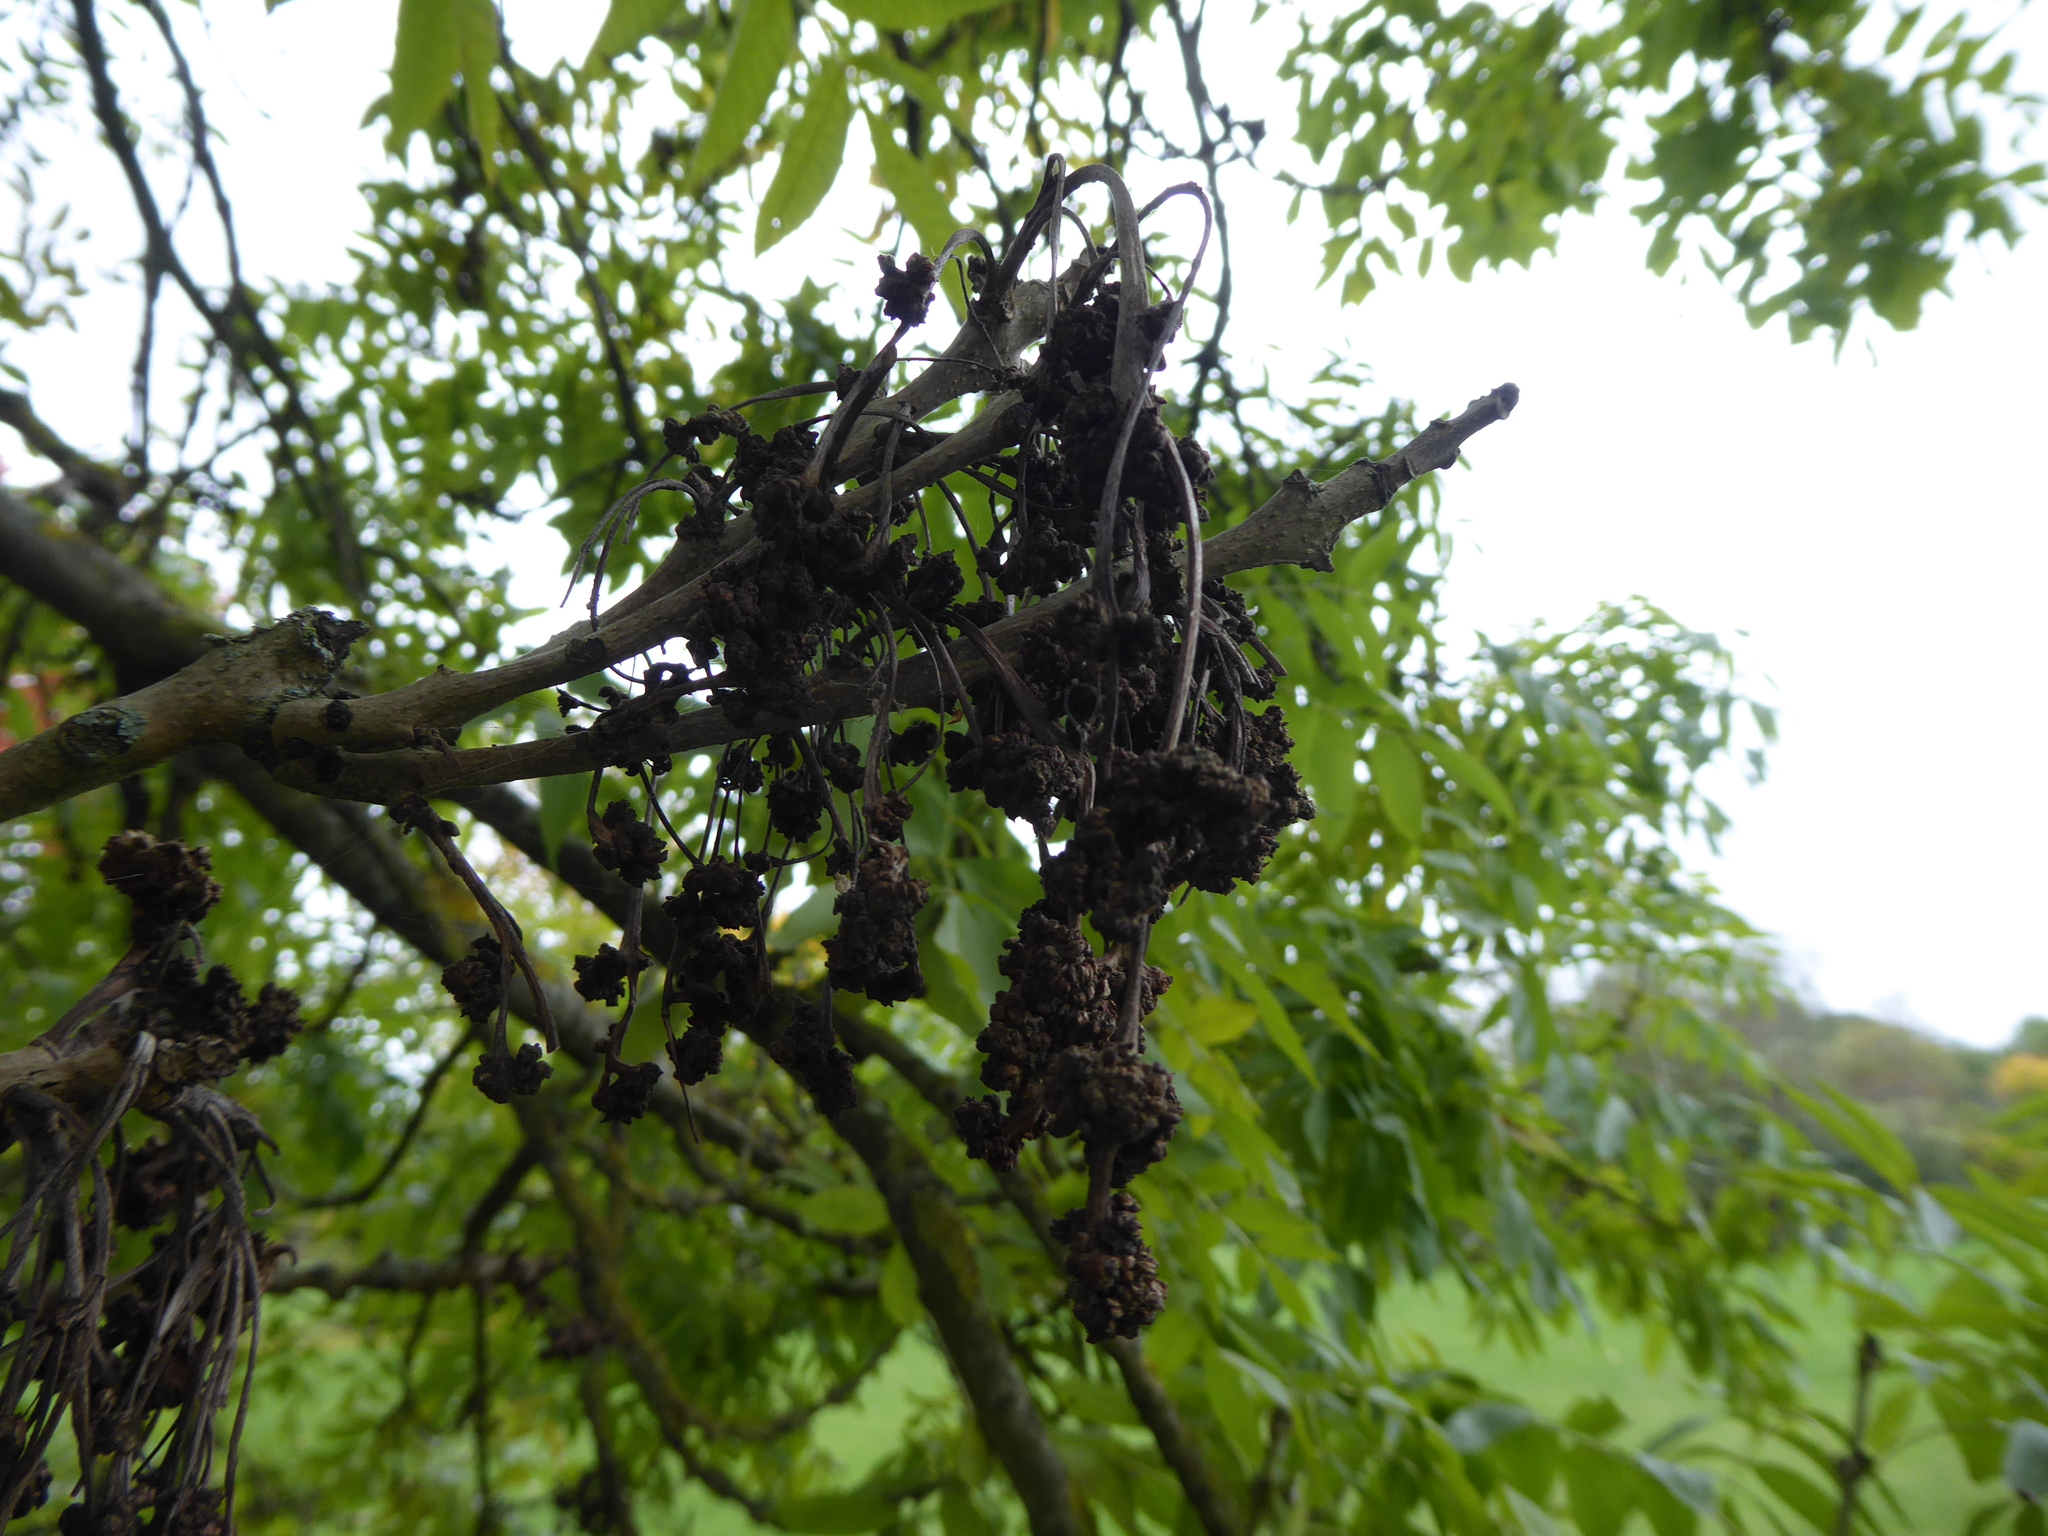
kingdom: Plantae
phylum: Tracheophyta
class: Magnoliopsida
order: Lamiales
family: Oleaceae
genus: Fraxinus
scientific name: Fraxinus excelsior
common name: European ash
